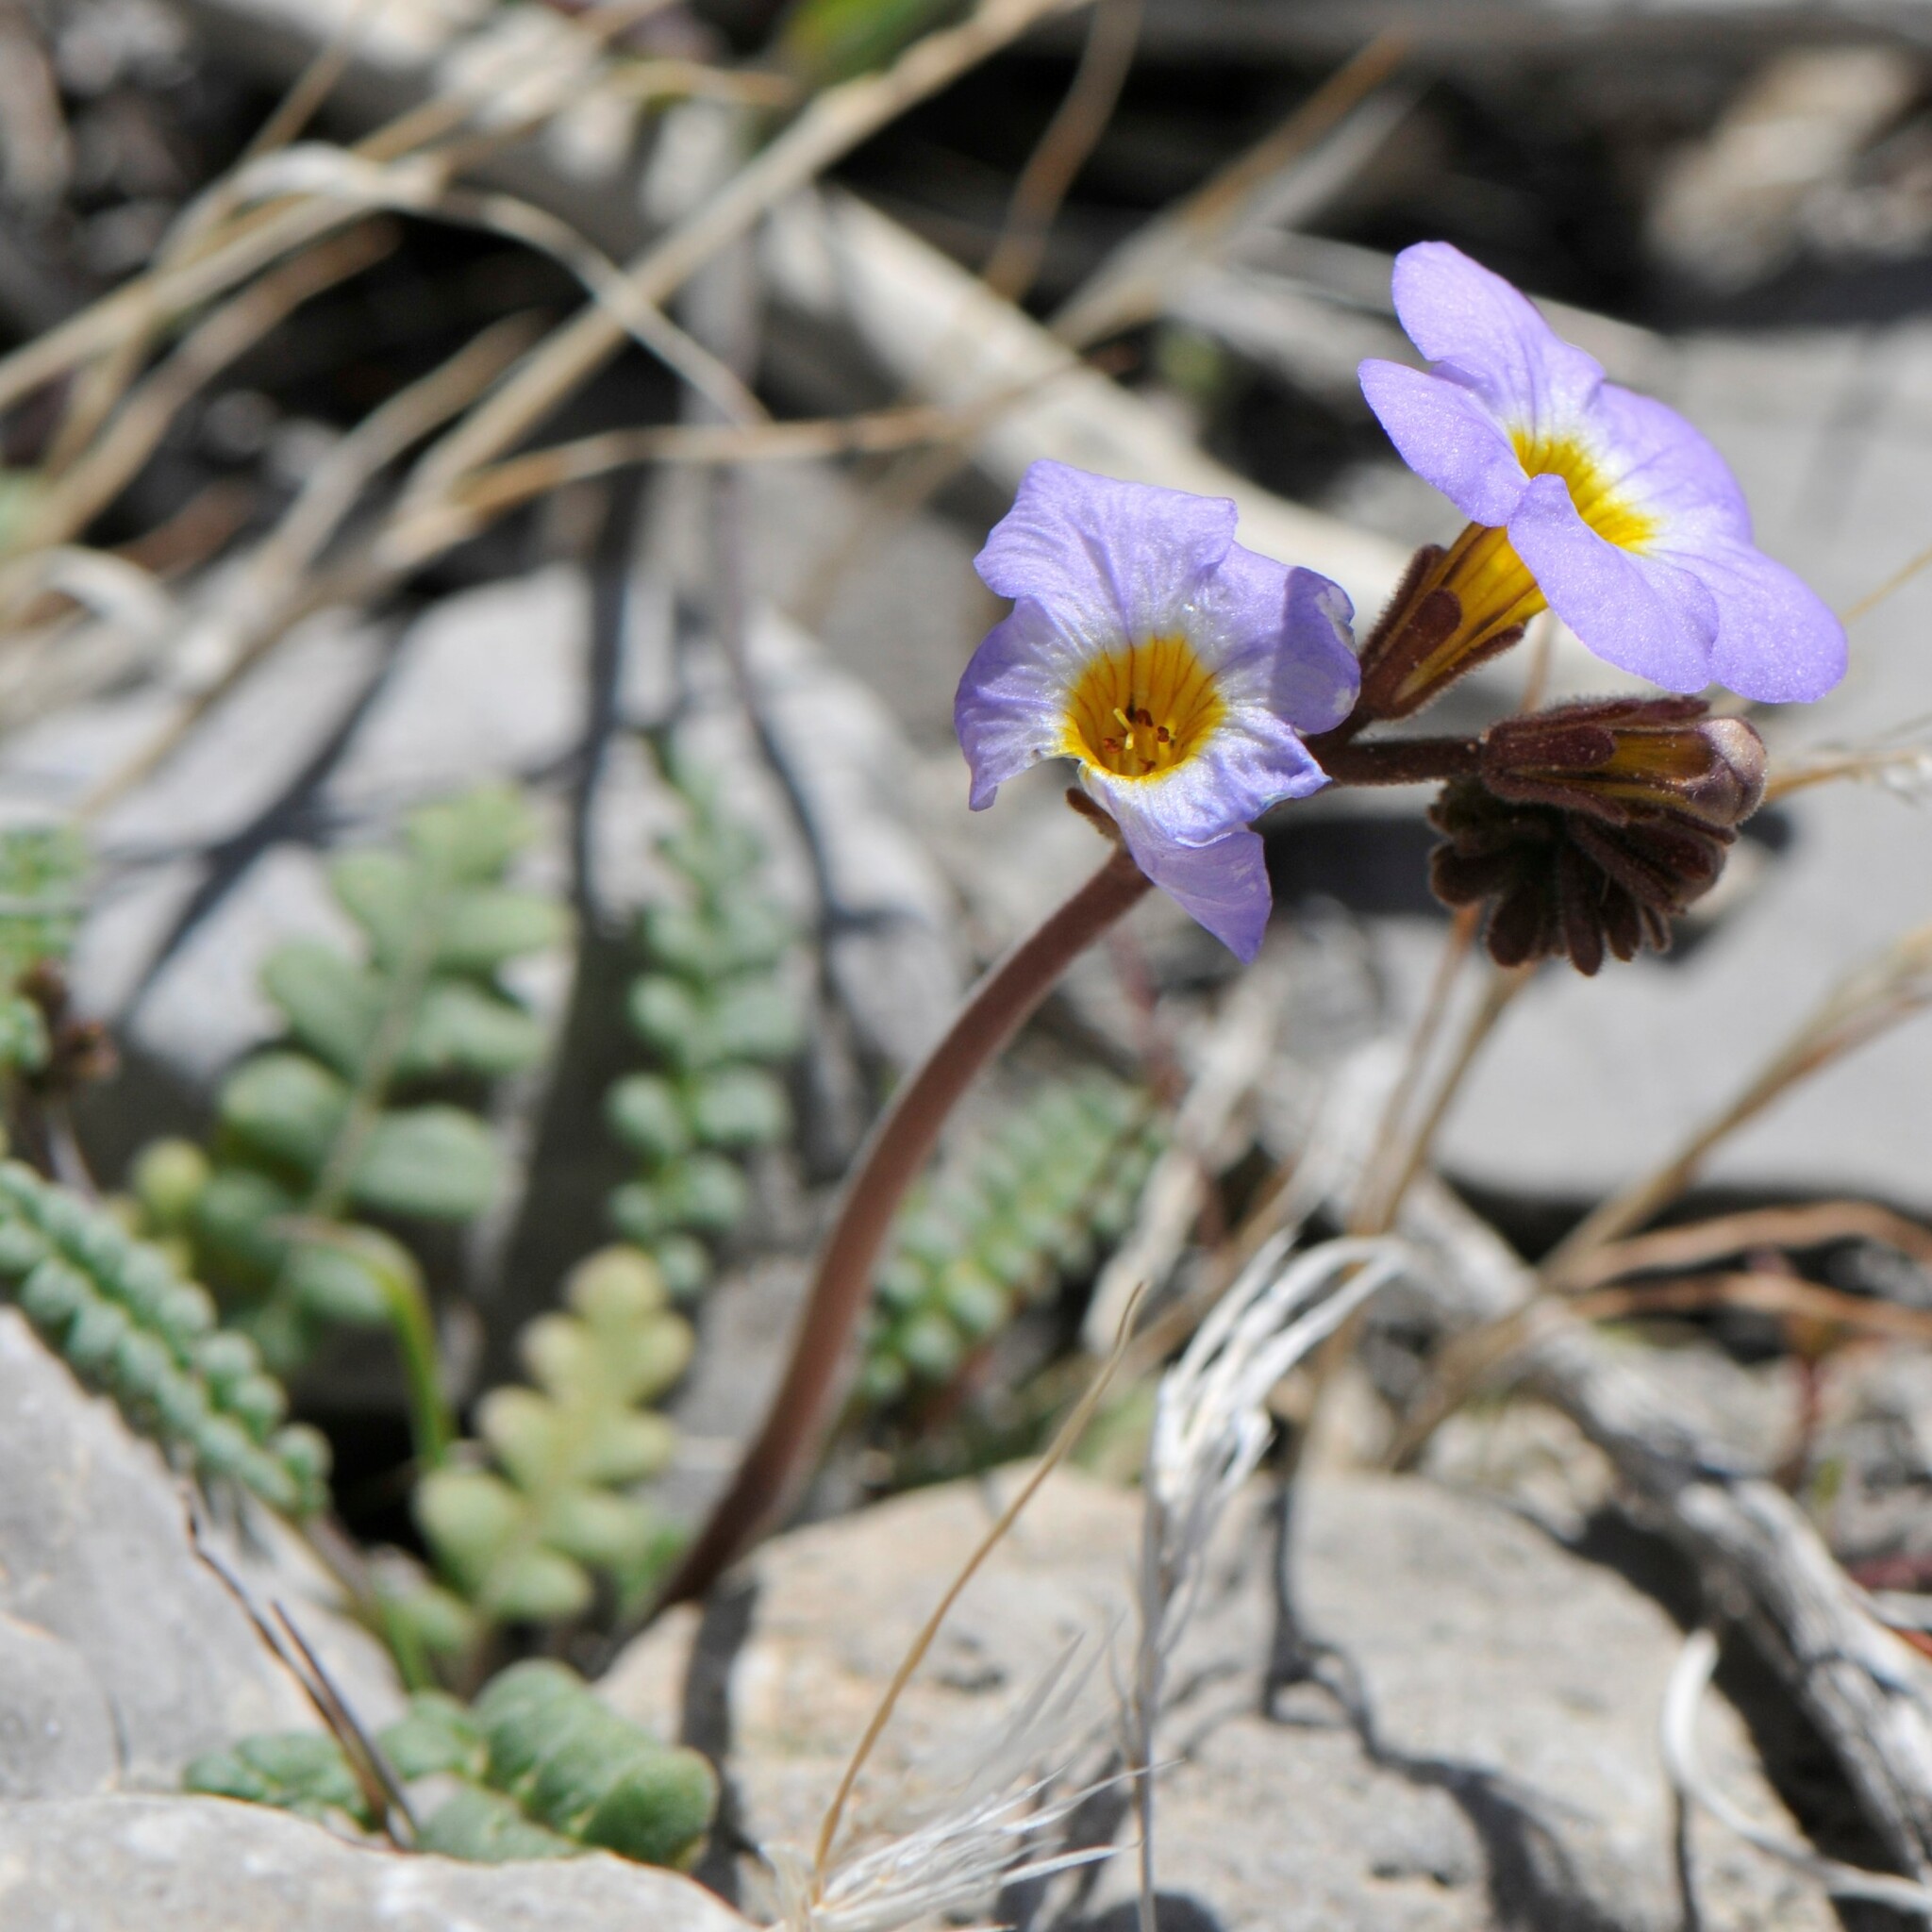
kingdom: Plantae
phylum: Tracheophyta
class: Magnoliopsida
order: Boraginales
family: Hydrophyllaceae
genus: Phacelia
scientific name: Phacelia fremontii
